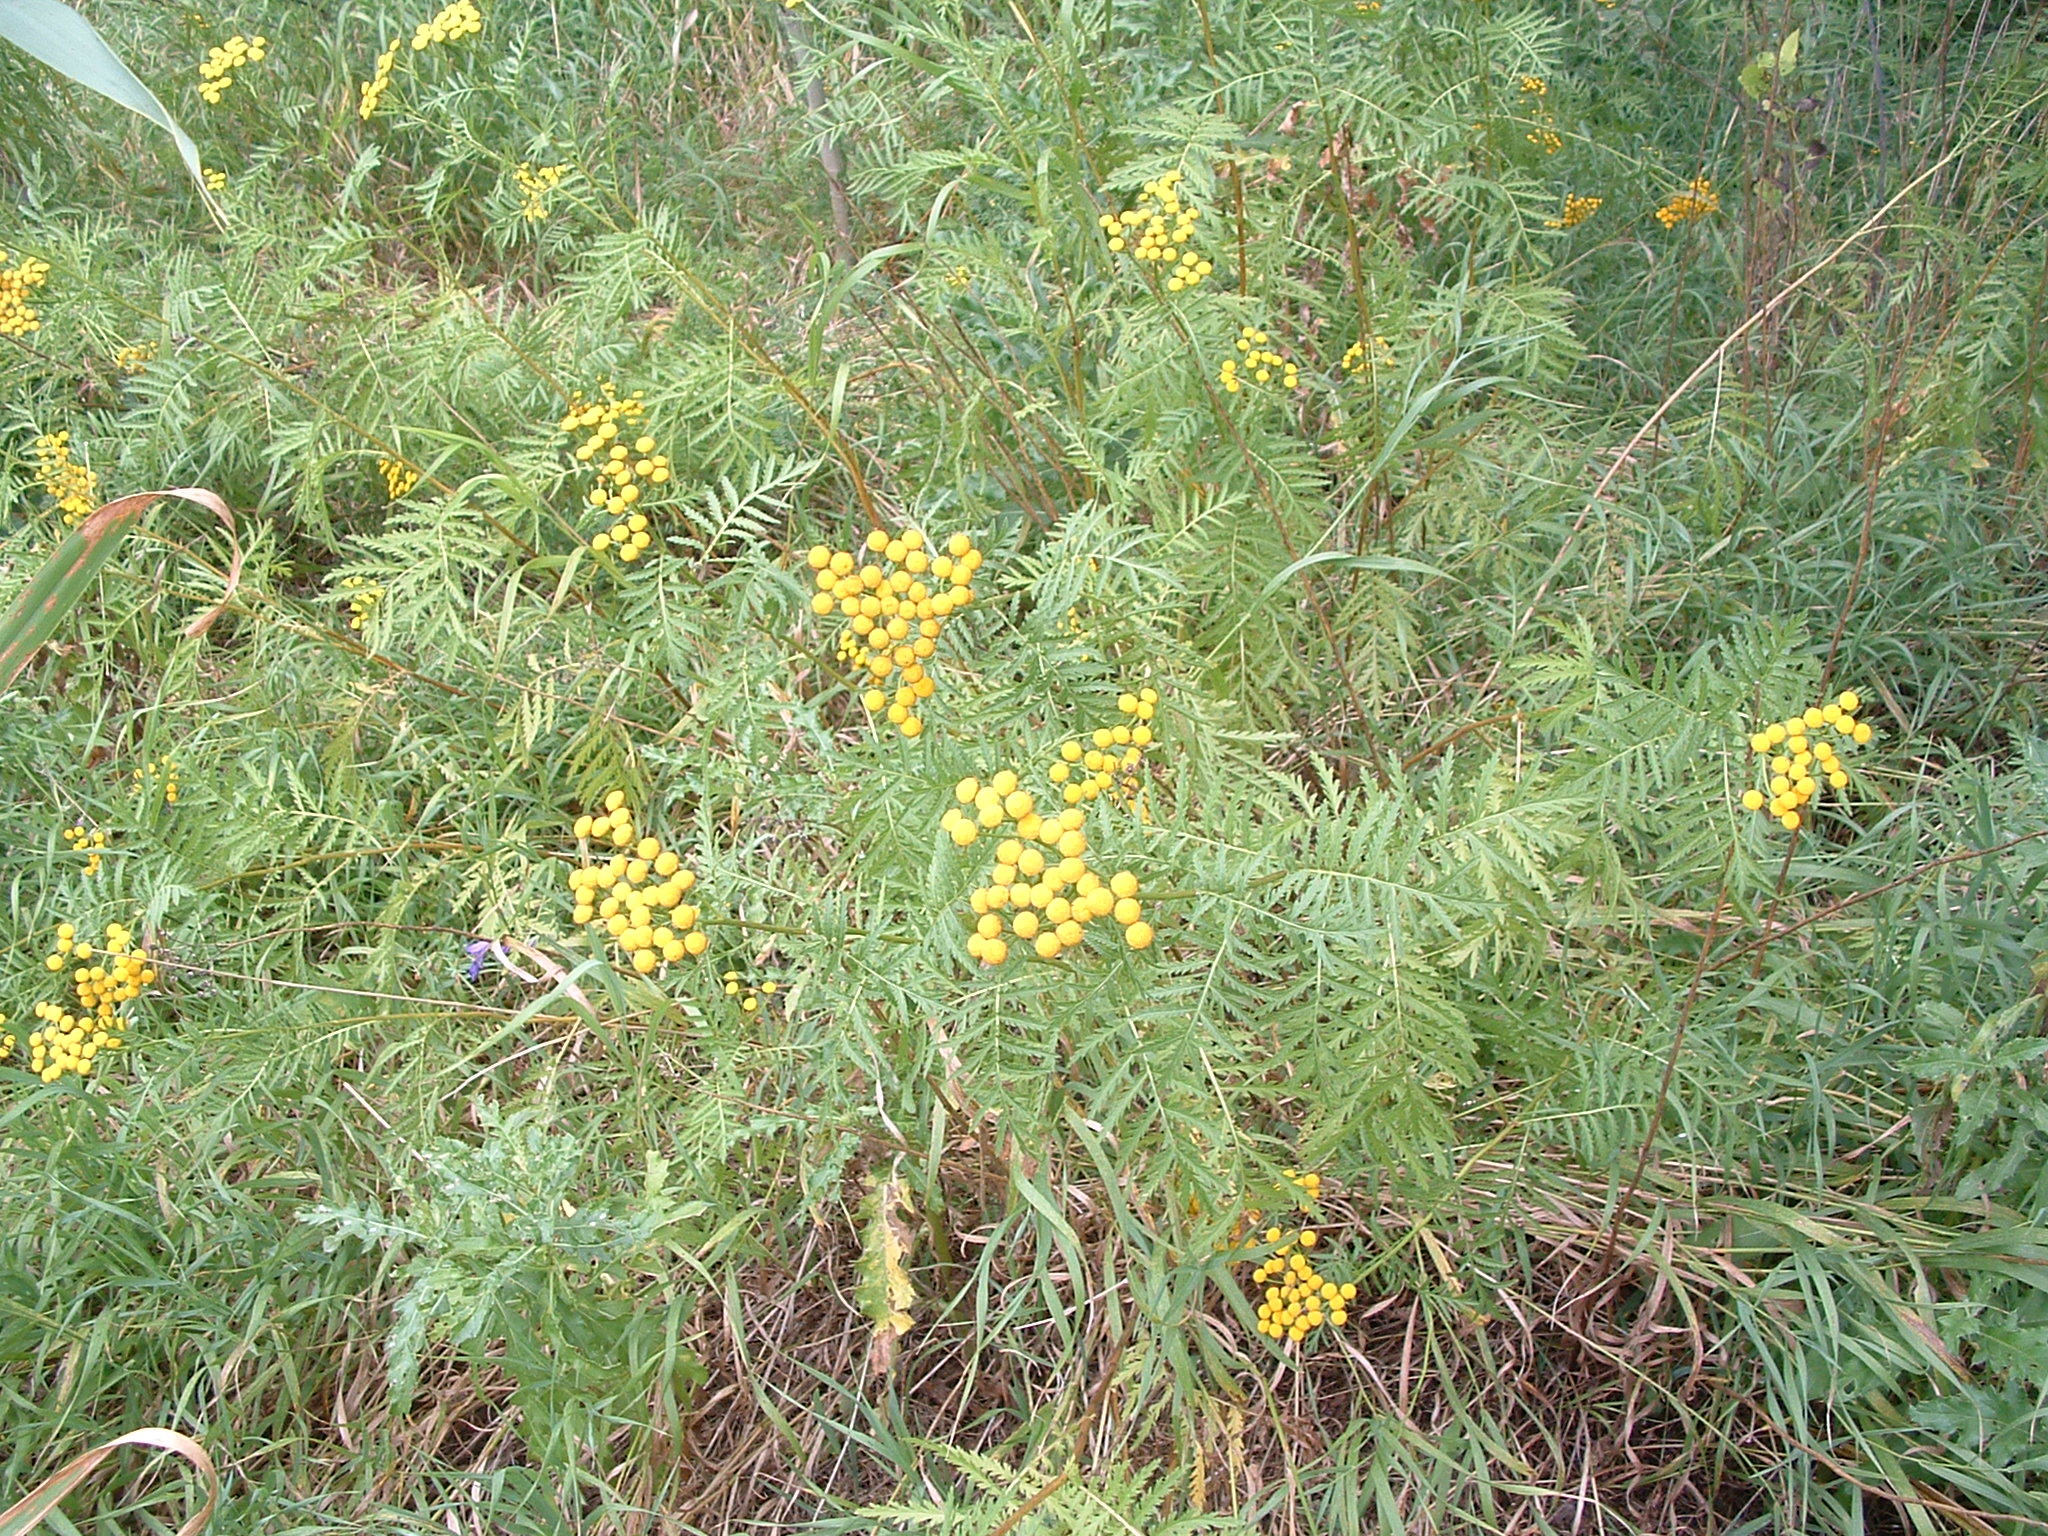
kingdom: Plantae
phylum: Tracheophyta
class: Magnoliopsida
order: Asterales
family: Asteraceae
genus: Tanacetum
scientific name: Tanacetum vulgare
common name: Common tansy
